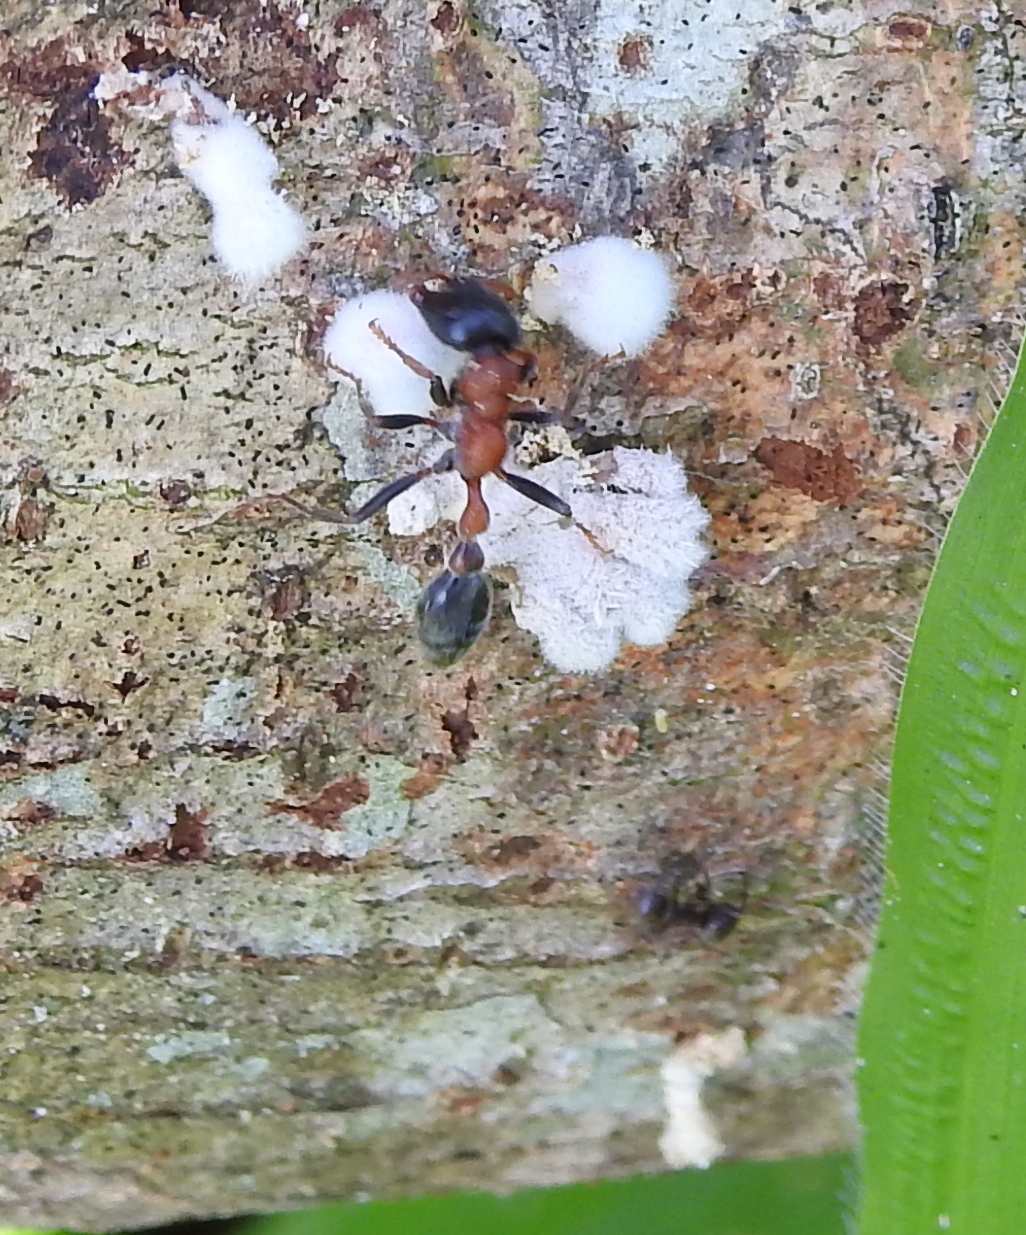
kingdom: Animalia
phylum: Arthropoda
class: Insecta
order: Hymenoptera
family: Formicidae
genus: Tetraponera
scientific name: Tetraponera rufonigra
